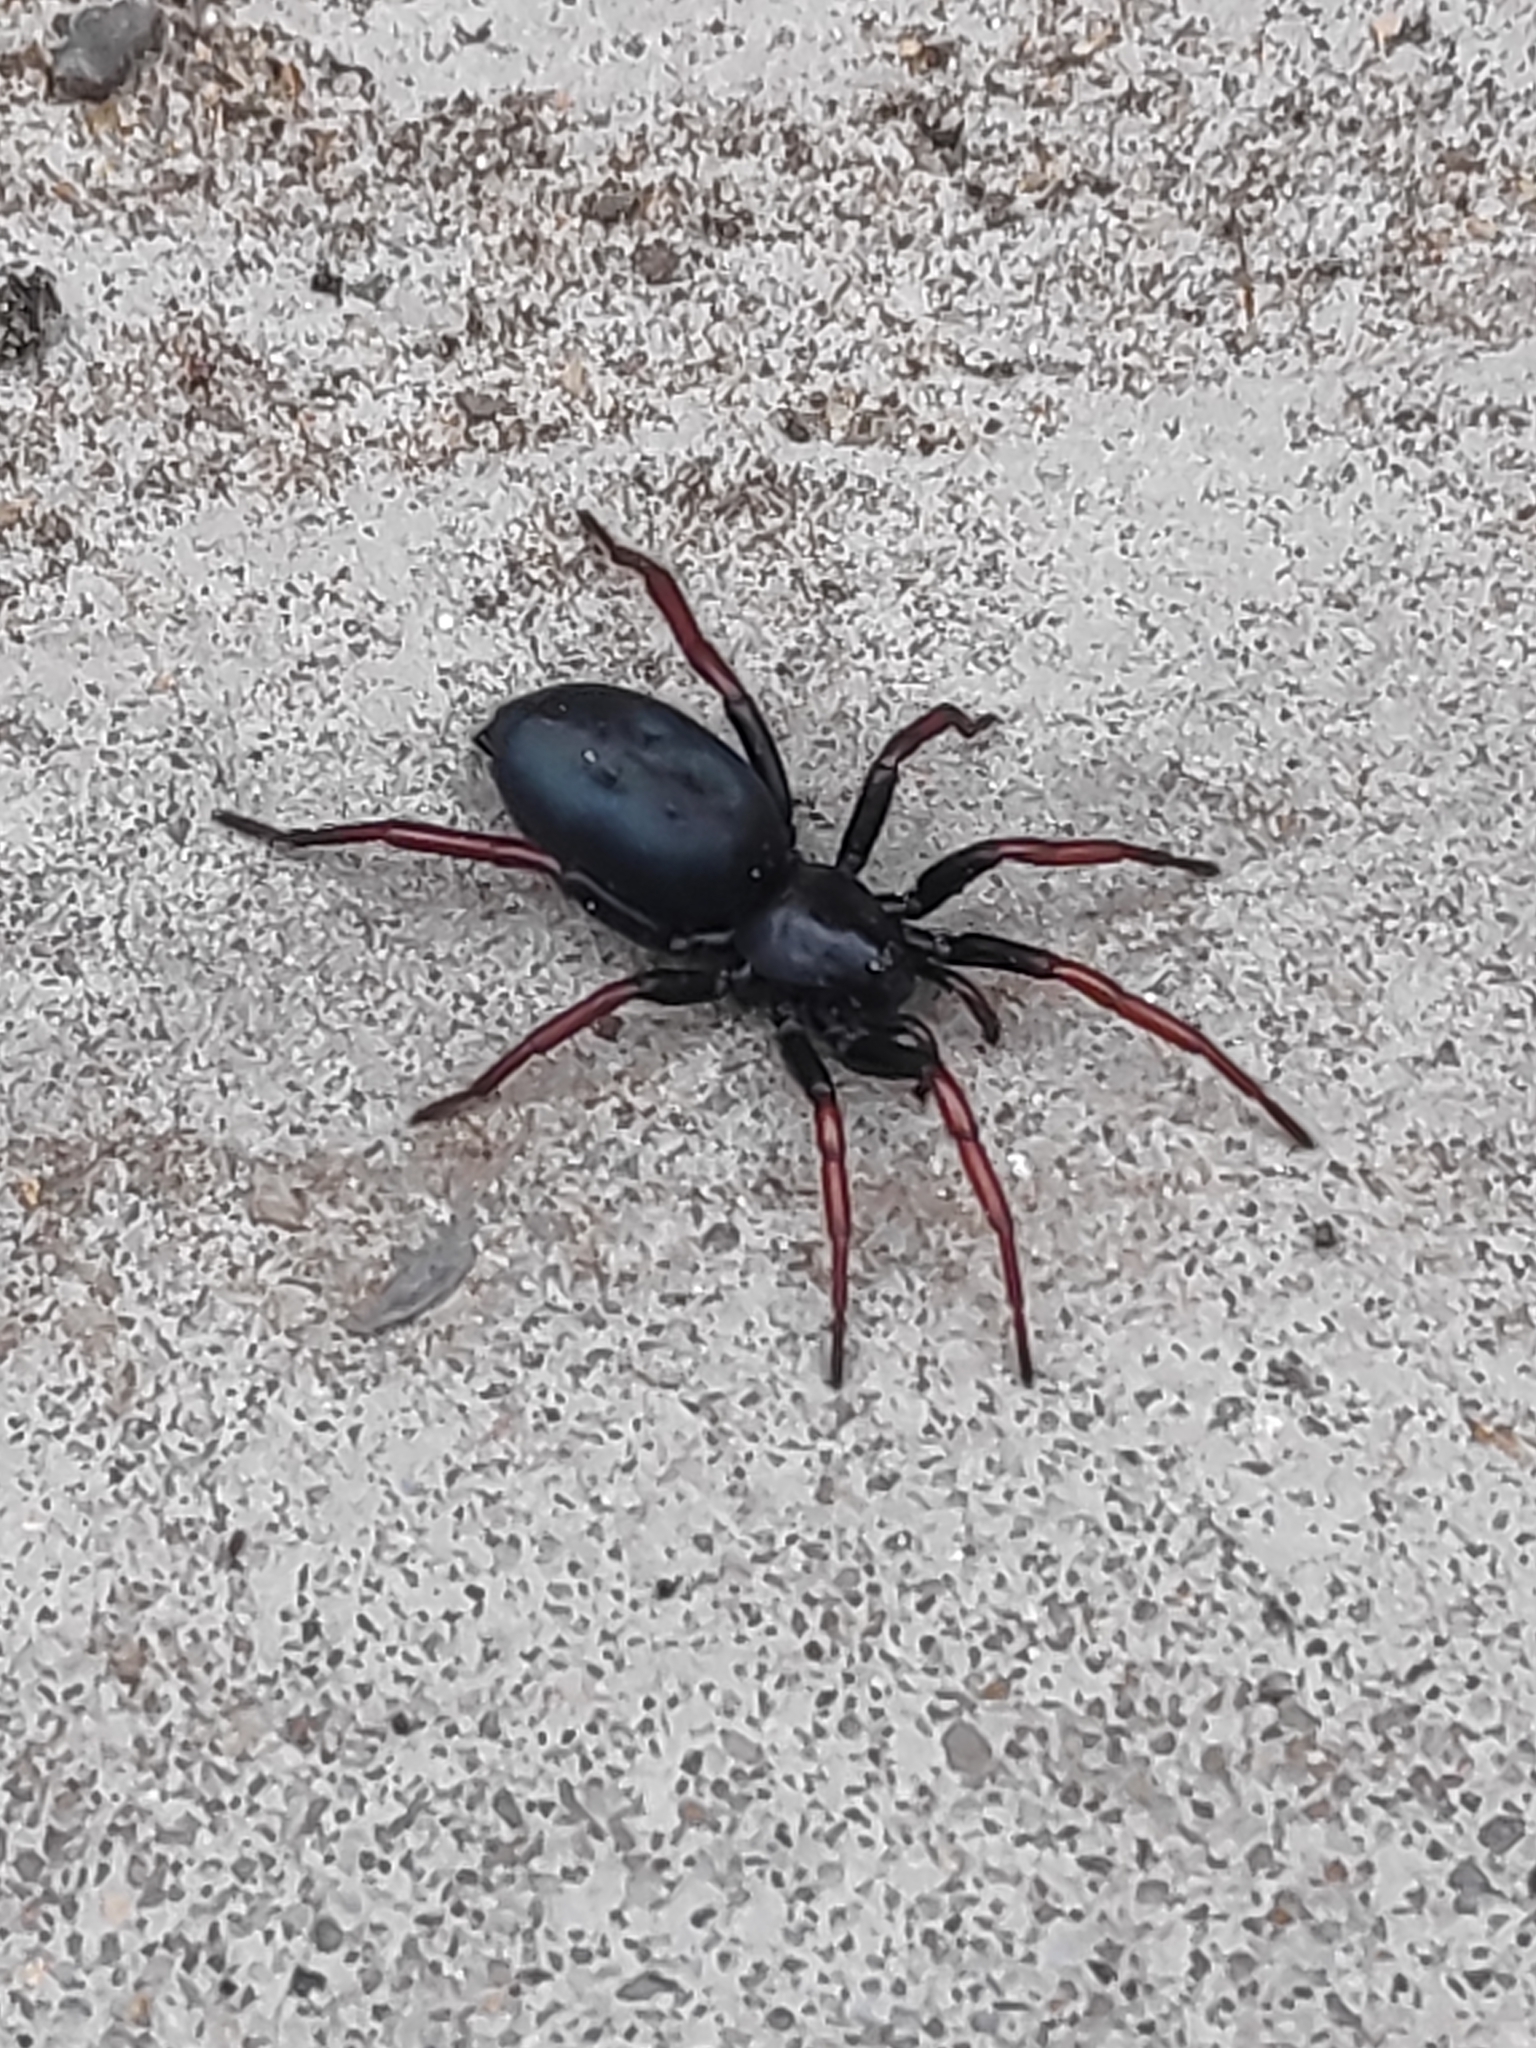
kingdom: Animalia
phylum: Arthropoda
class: Arachnida
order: Araneae
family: Gnaphosidae
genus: Trachyzelotes
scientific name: Trachyzelotes pedestris
